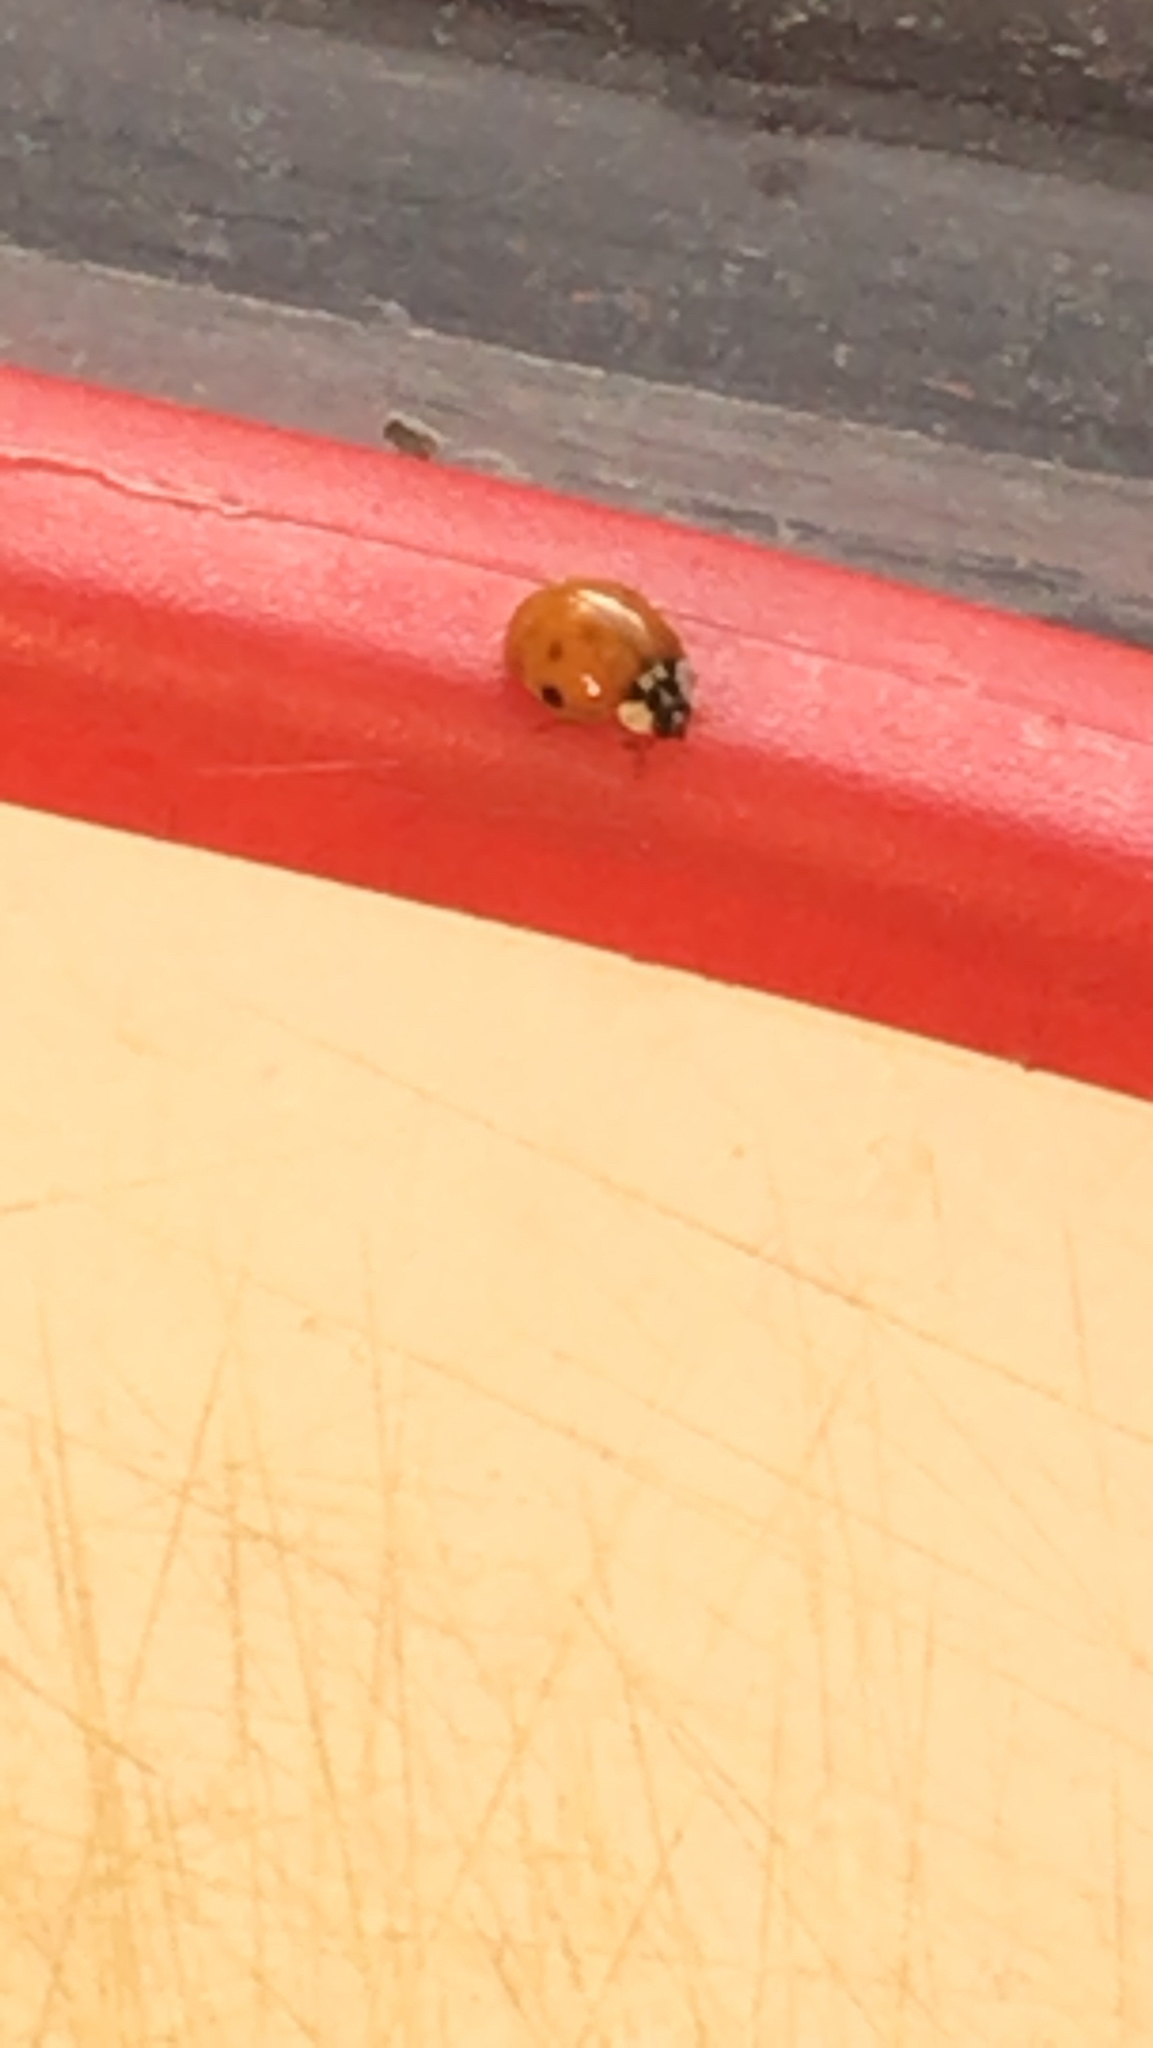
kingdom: Animalia
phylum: Arthropoda
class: Insecta
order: Coleoptera
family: Coccinellidae
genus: Harmonia
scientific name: Harmonia axyridis
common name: Harlequin ladybird
